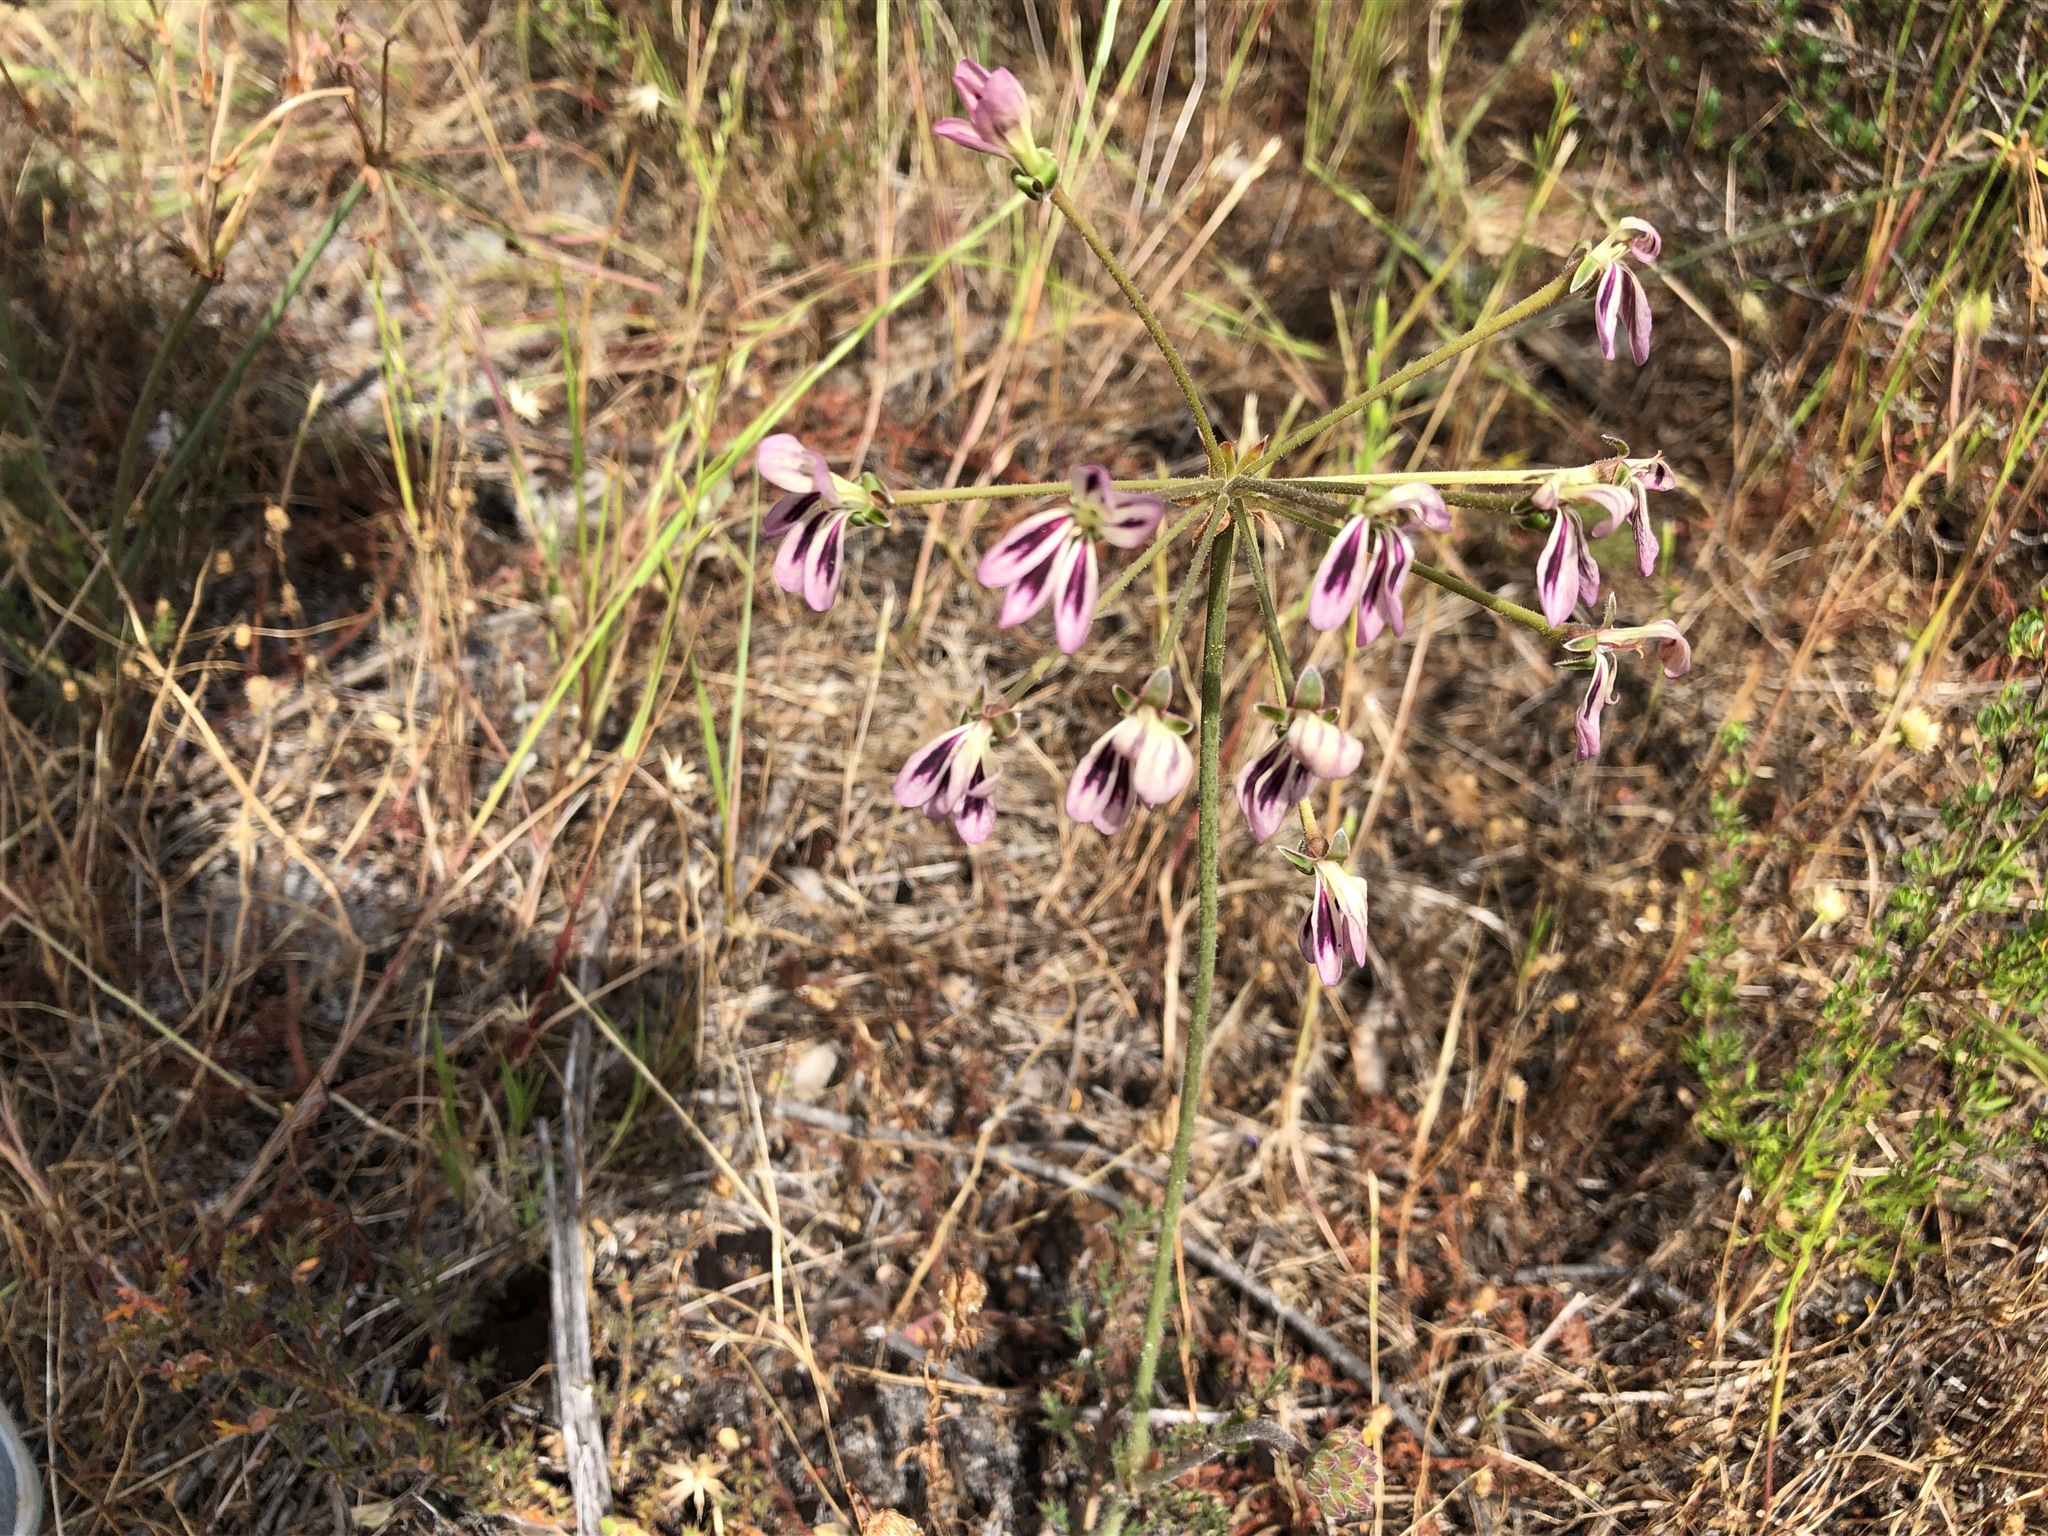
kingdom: Plantae
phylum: Tracheophyta
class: Magnoliopsida
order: Geraniales
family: Geraniaceae
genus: Pelargonium
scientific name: Pelargonium triste
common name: Night-scent pelargonium
